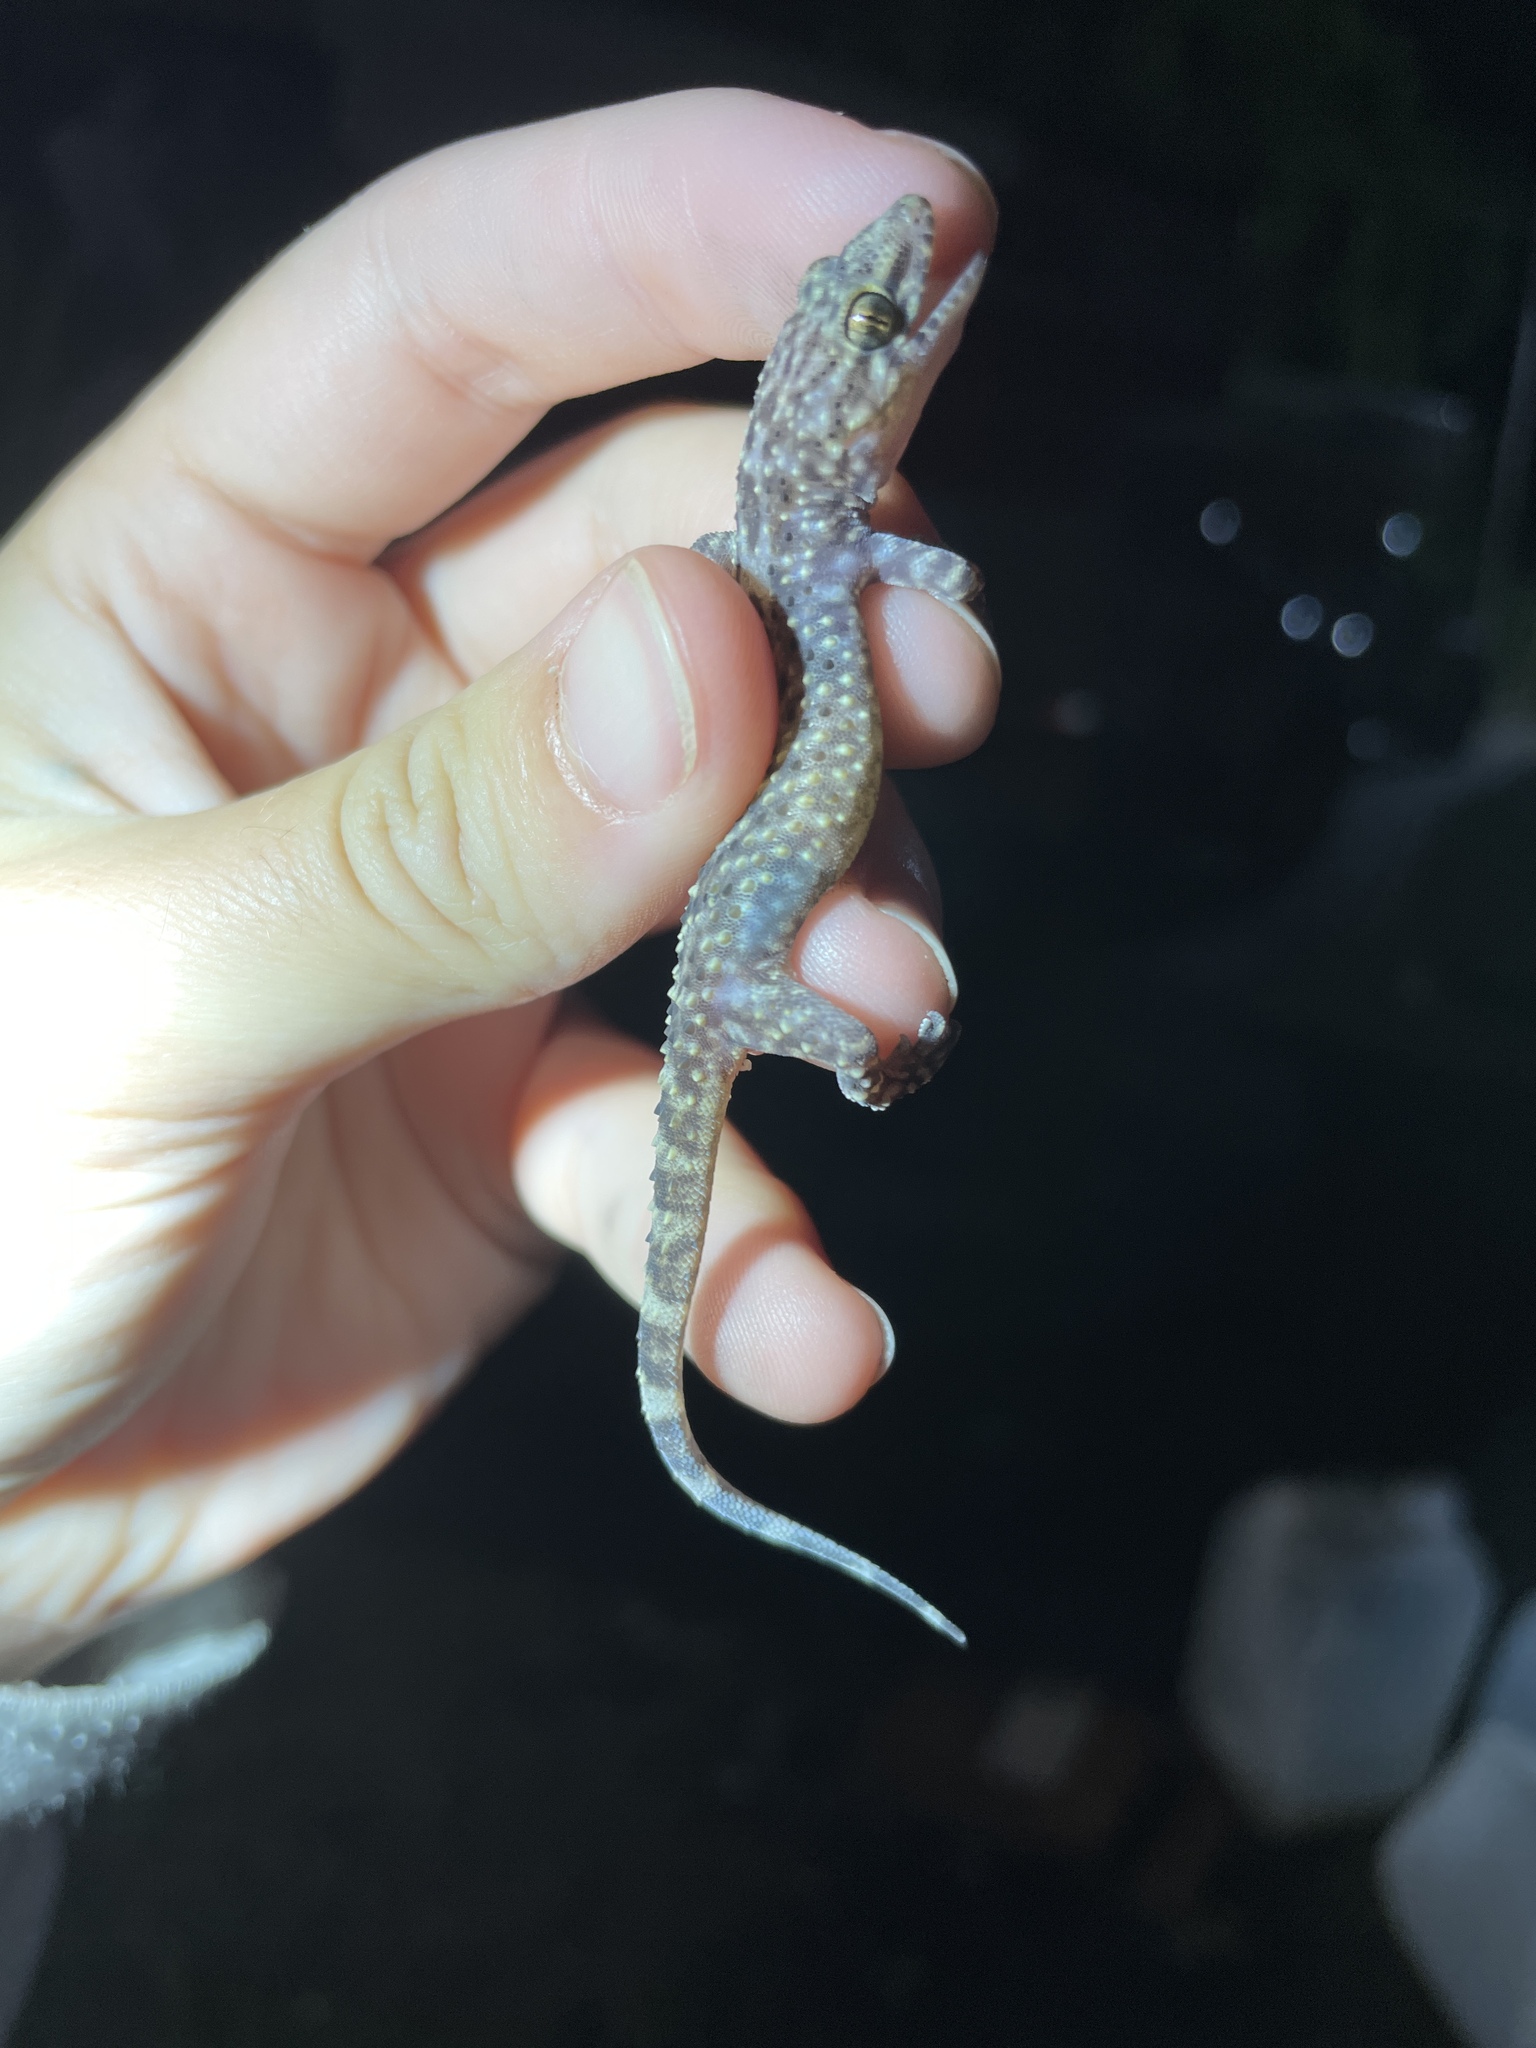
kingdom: Animalia
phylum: Chordata
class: Squamata
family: Gekkonidae
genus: Hemidactylus
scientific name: Hemidactylus turcicus
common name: Turkish gecko
